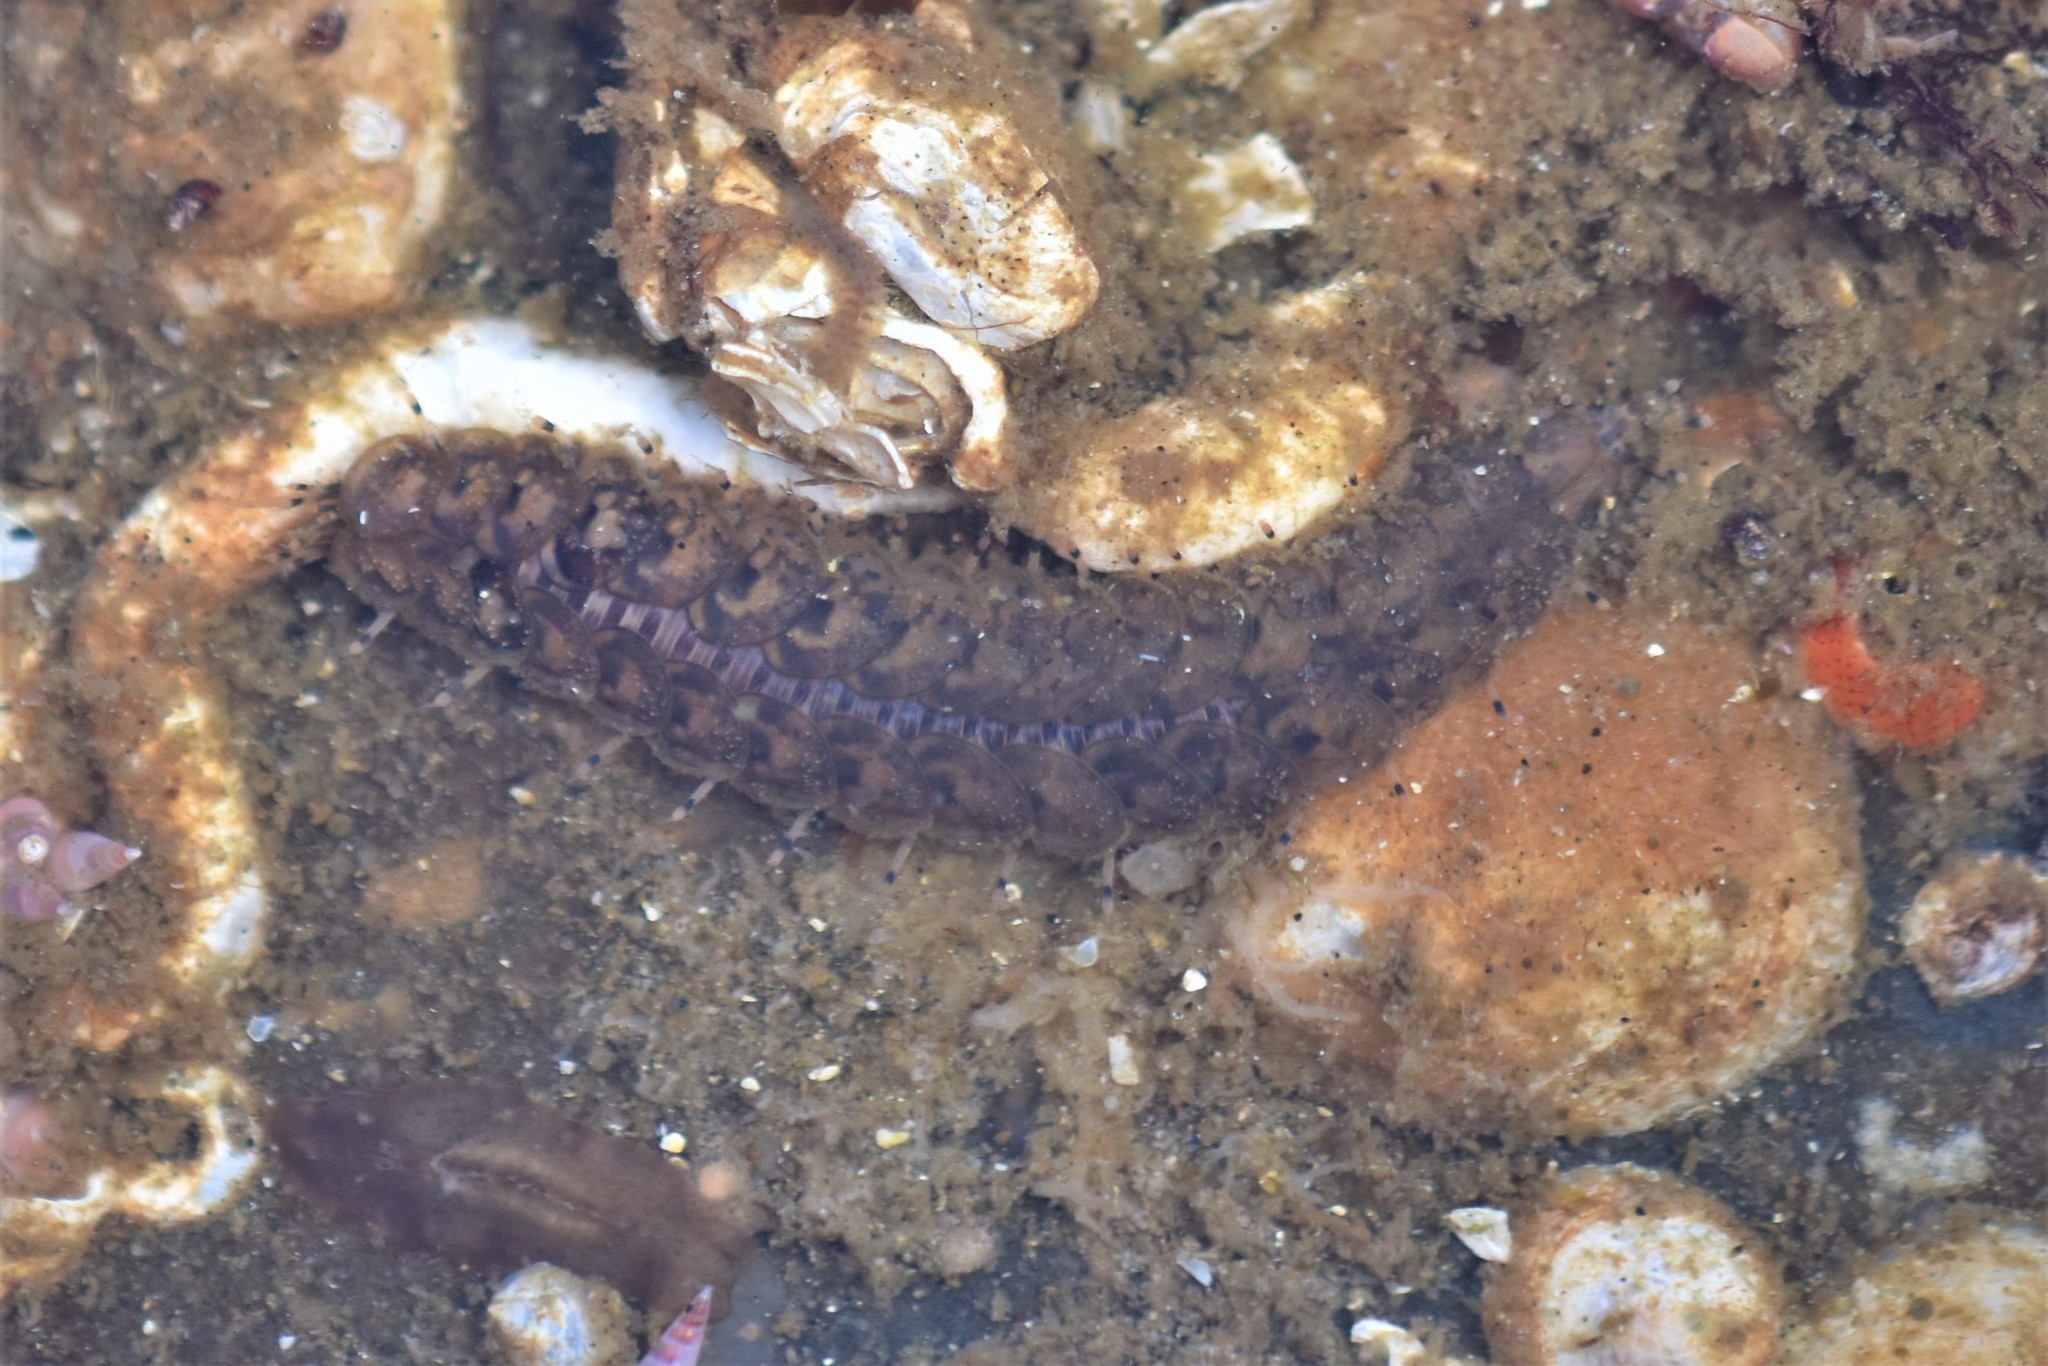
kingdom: Animalia
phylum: Annelida
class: Polychaeta
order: Phyllodocida
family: Polynoidae
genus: Halosydna
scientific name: Halosydna brevisetosa
